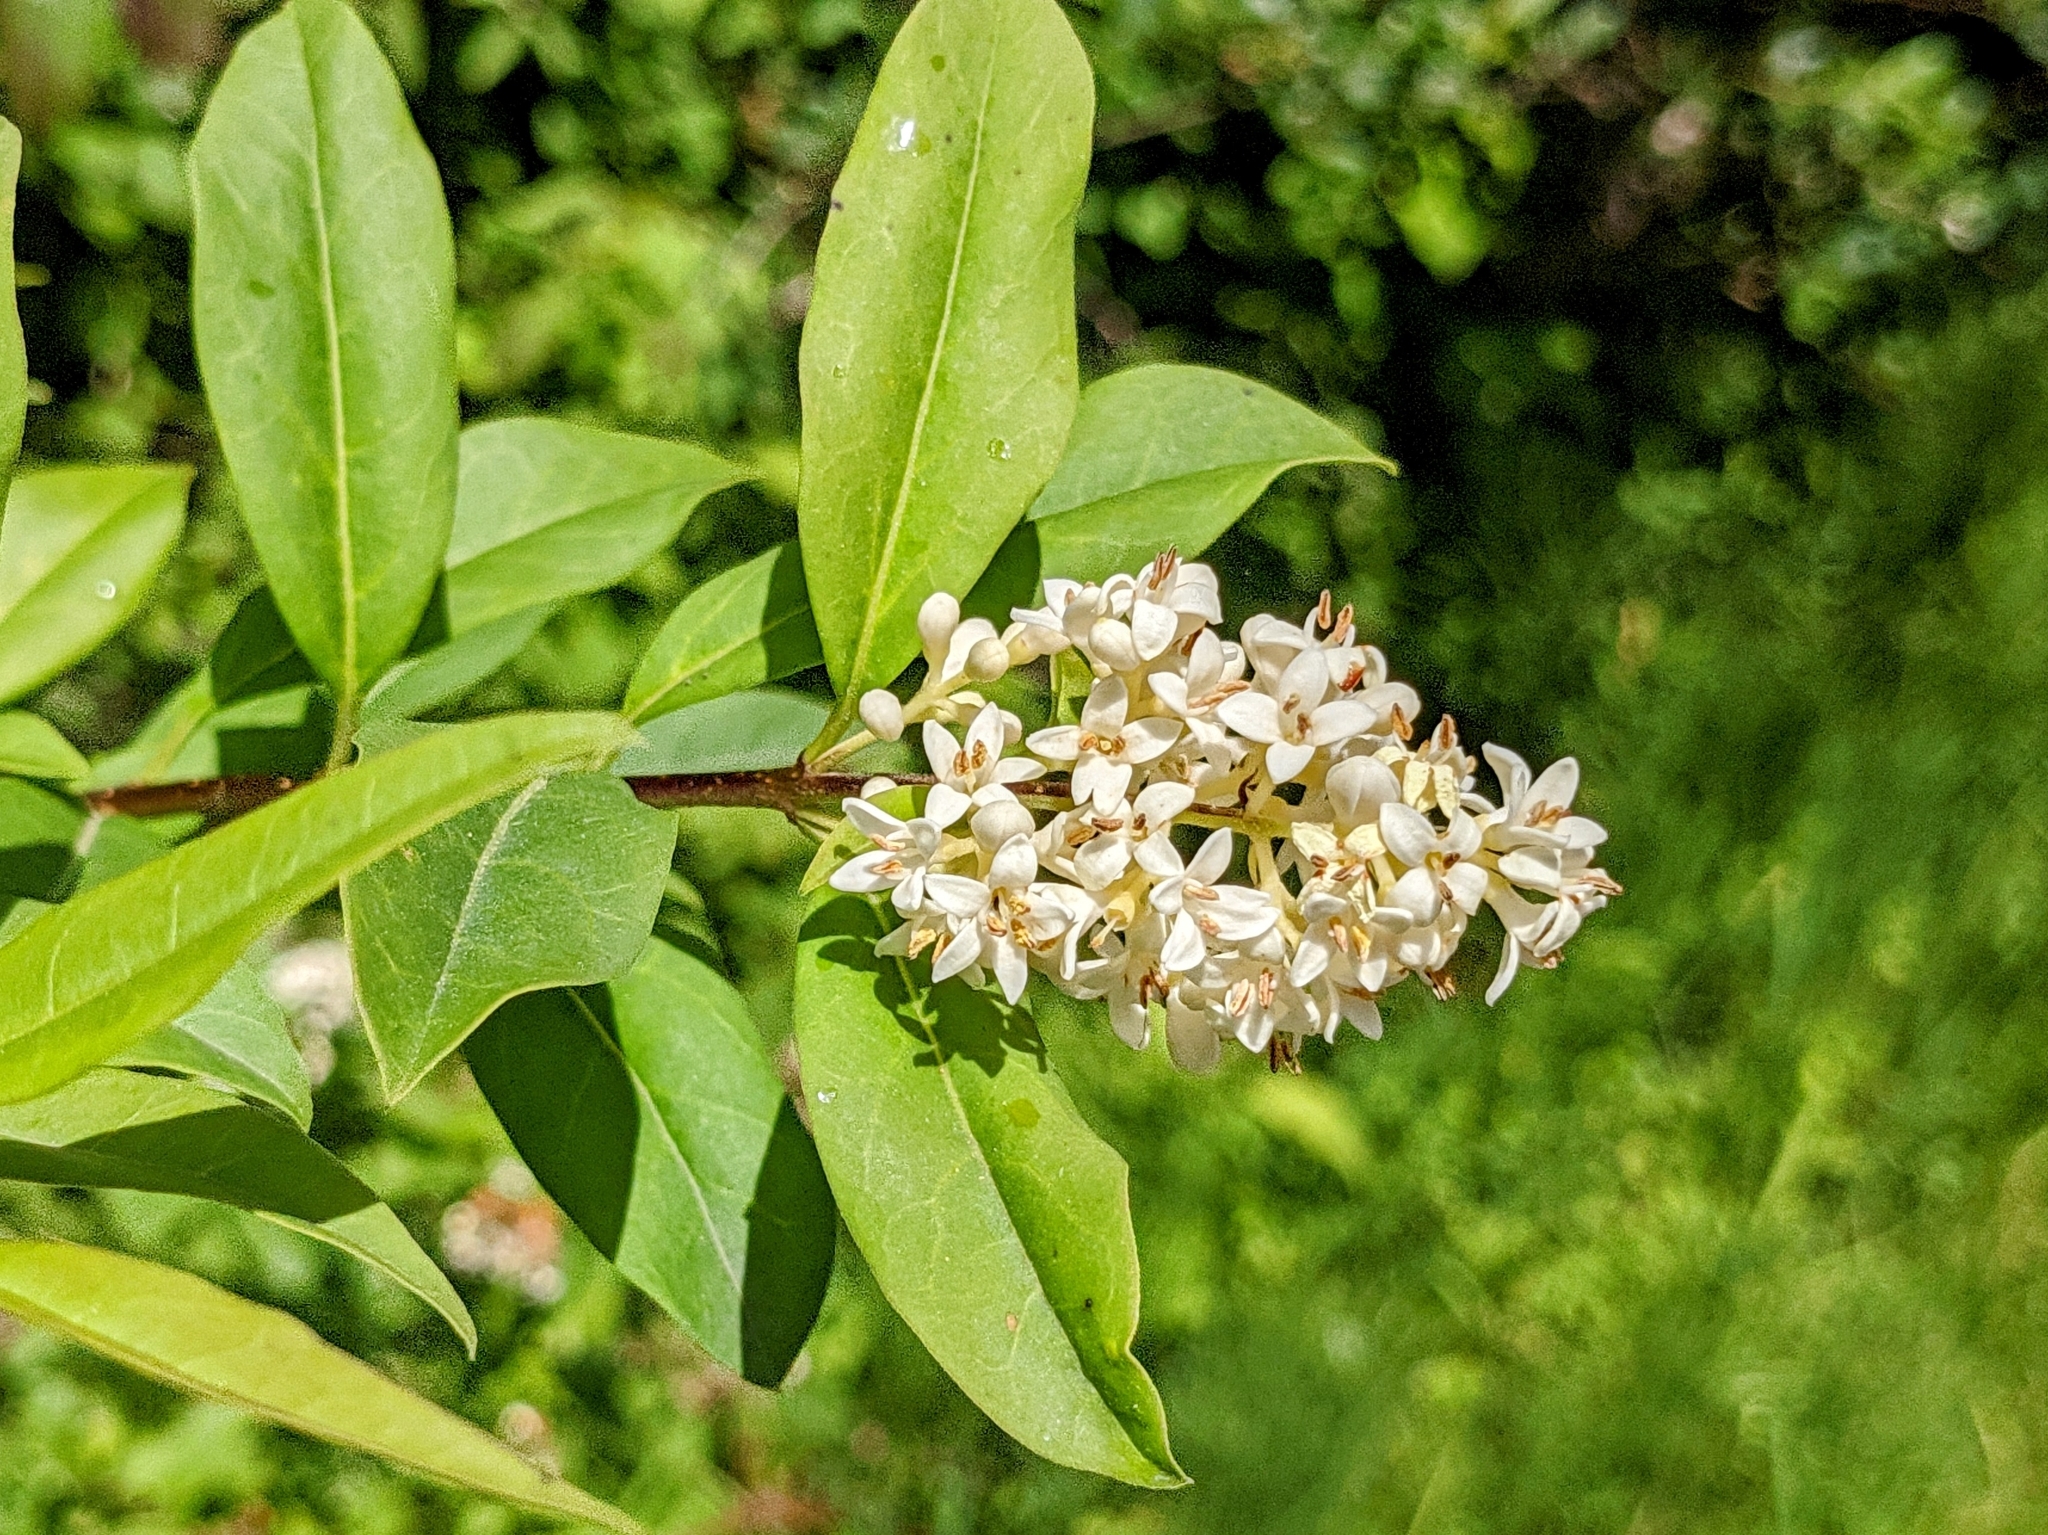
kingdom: Plantae
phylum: Tracheophyta
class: Magnoliopsida
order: Lamiales
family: Oleaceae
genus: Ligustrum
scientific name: Ligustrum vulgare
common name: Wild privet
